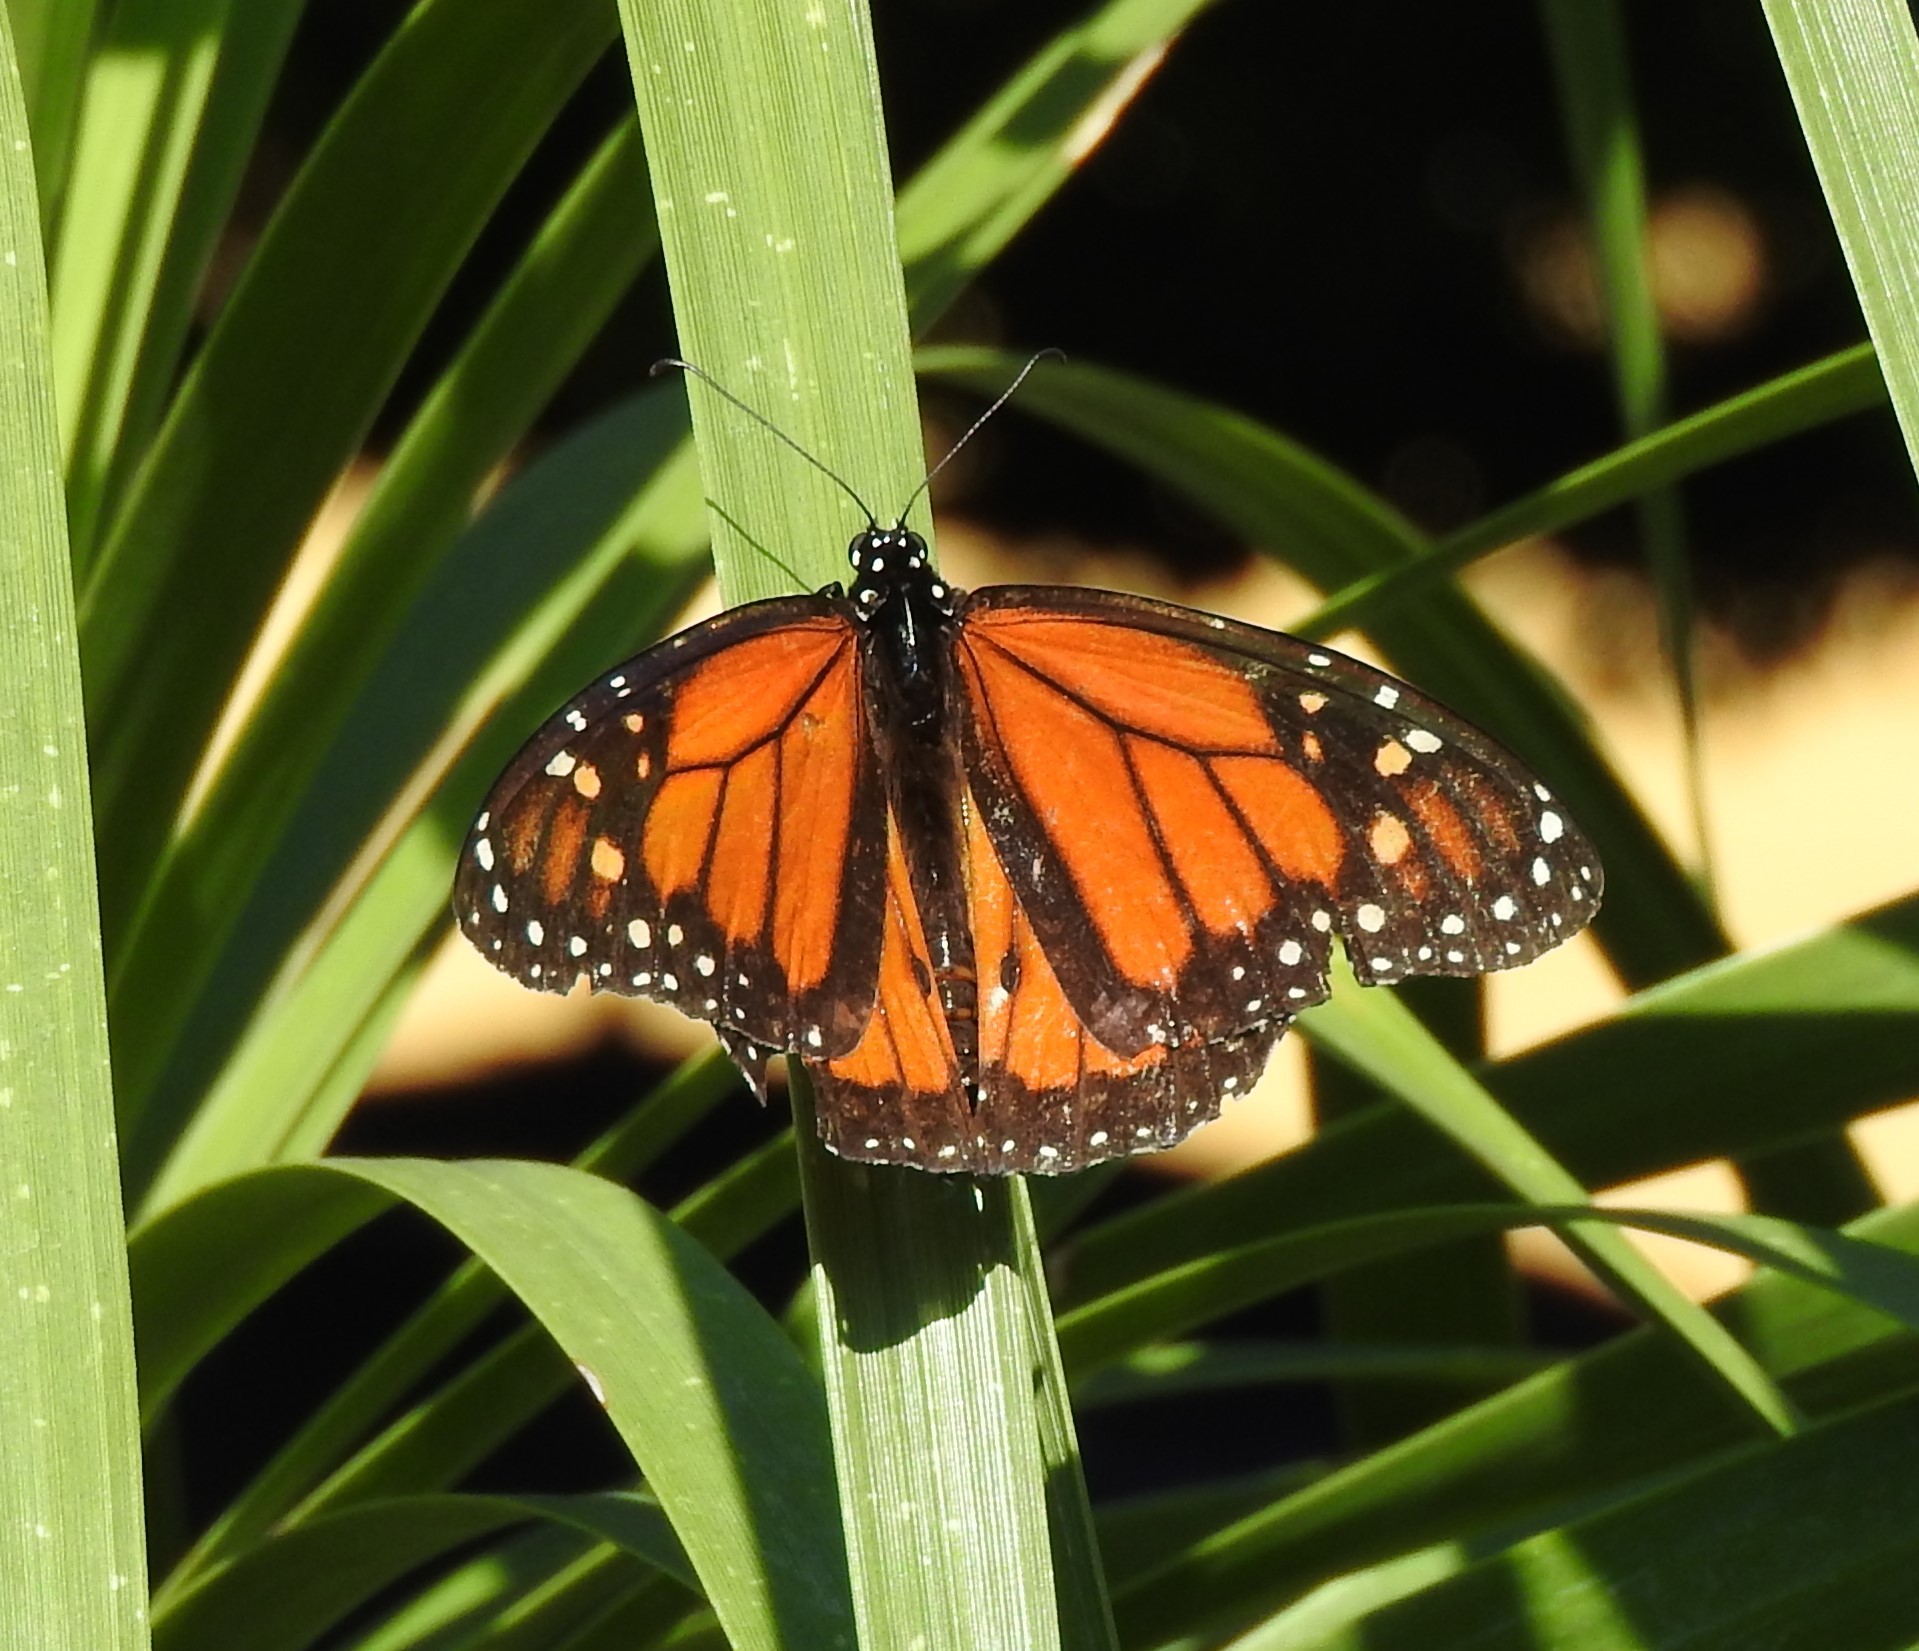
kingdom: Animalia
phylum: Arthropoda
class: Insecta
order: Lepidoptera
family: Nymphalidae
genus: Danaus
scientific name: Danaus plexippus
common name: Monarch
